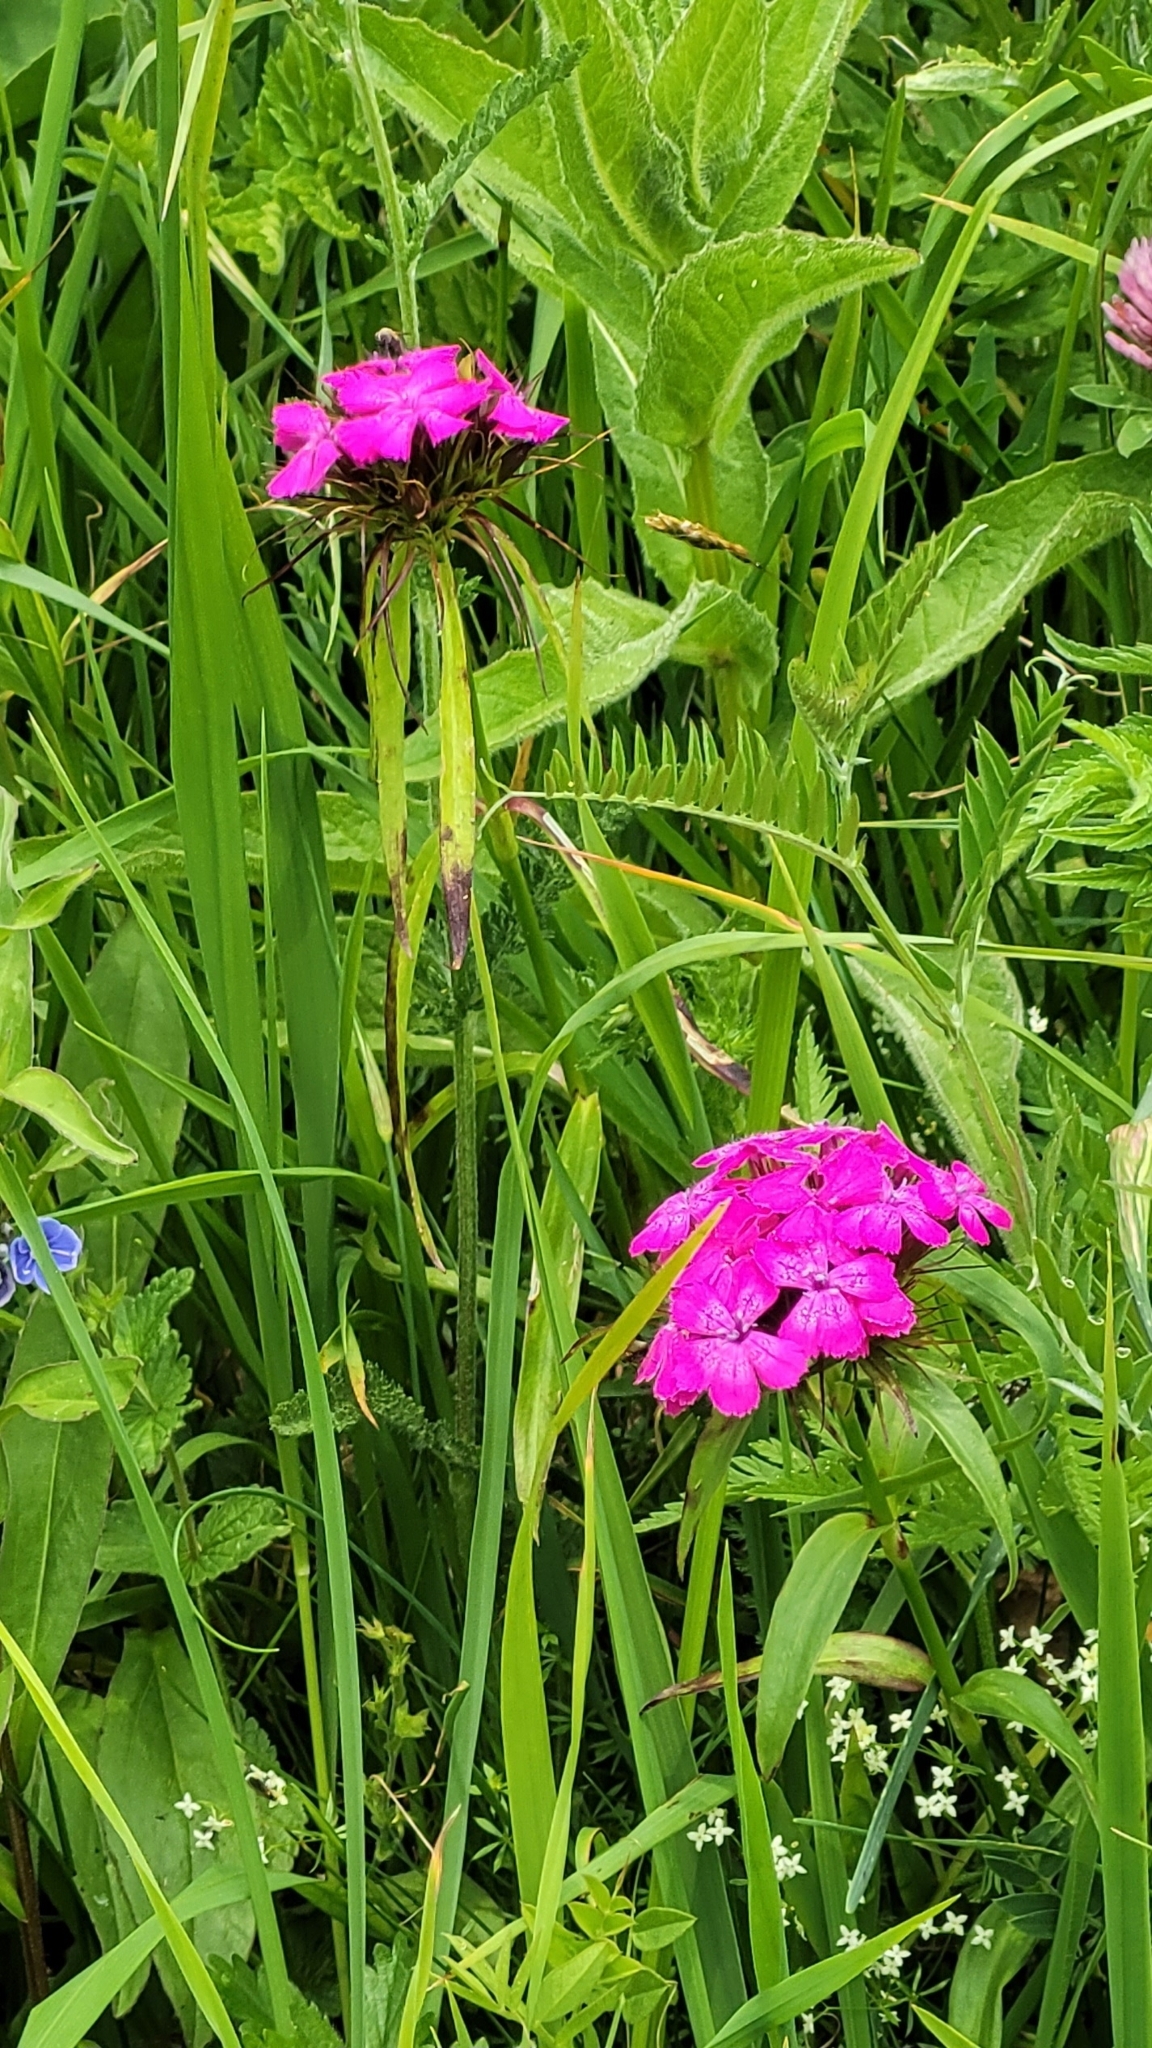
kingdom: Plantae
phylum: Tracheophyta
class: Magnoliopsida
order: Caryophyllales
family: Caryophyllaceae
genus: Dianthus
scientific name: Dianthus barbatus
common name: Sweet-william
